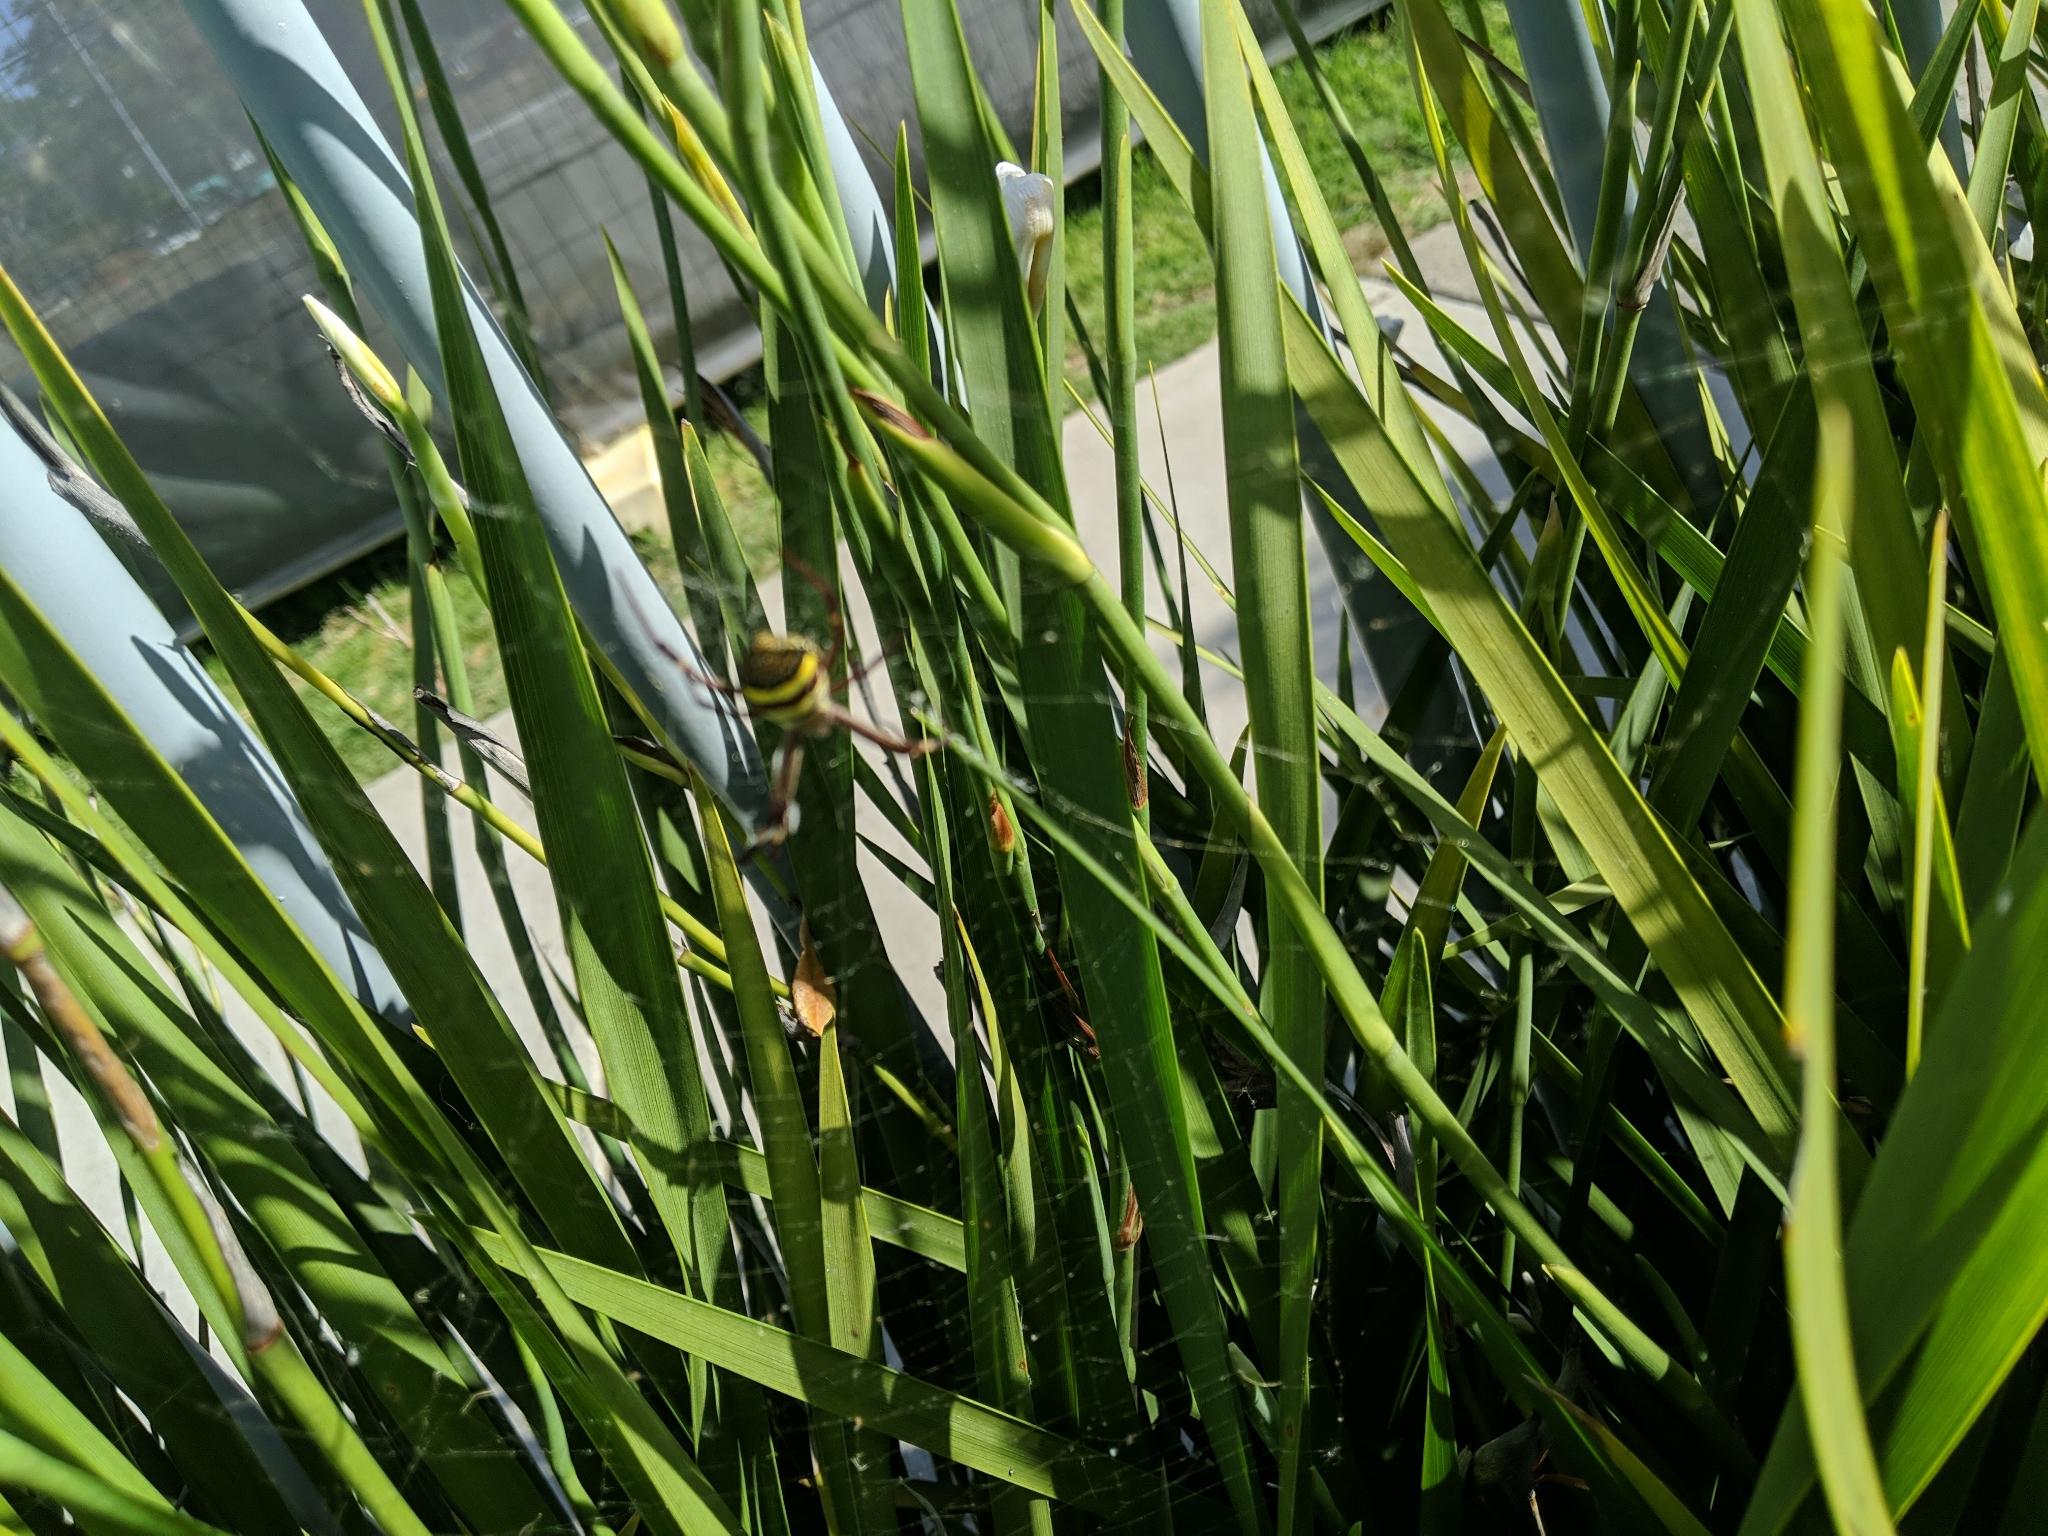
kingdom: Animalia
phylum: Arthropoda
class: Arachnida
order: Araneae
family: Araneidae
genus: Argiope
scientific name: Argiope keyserlingi
